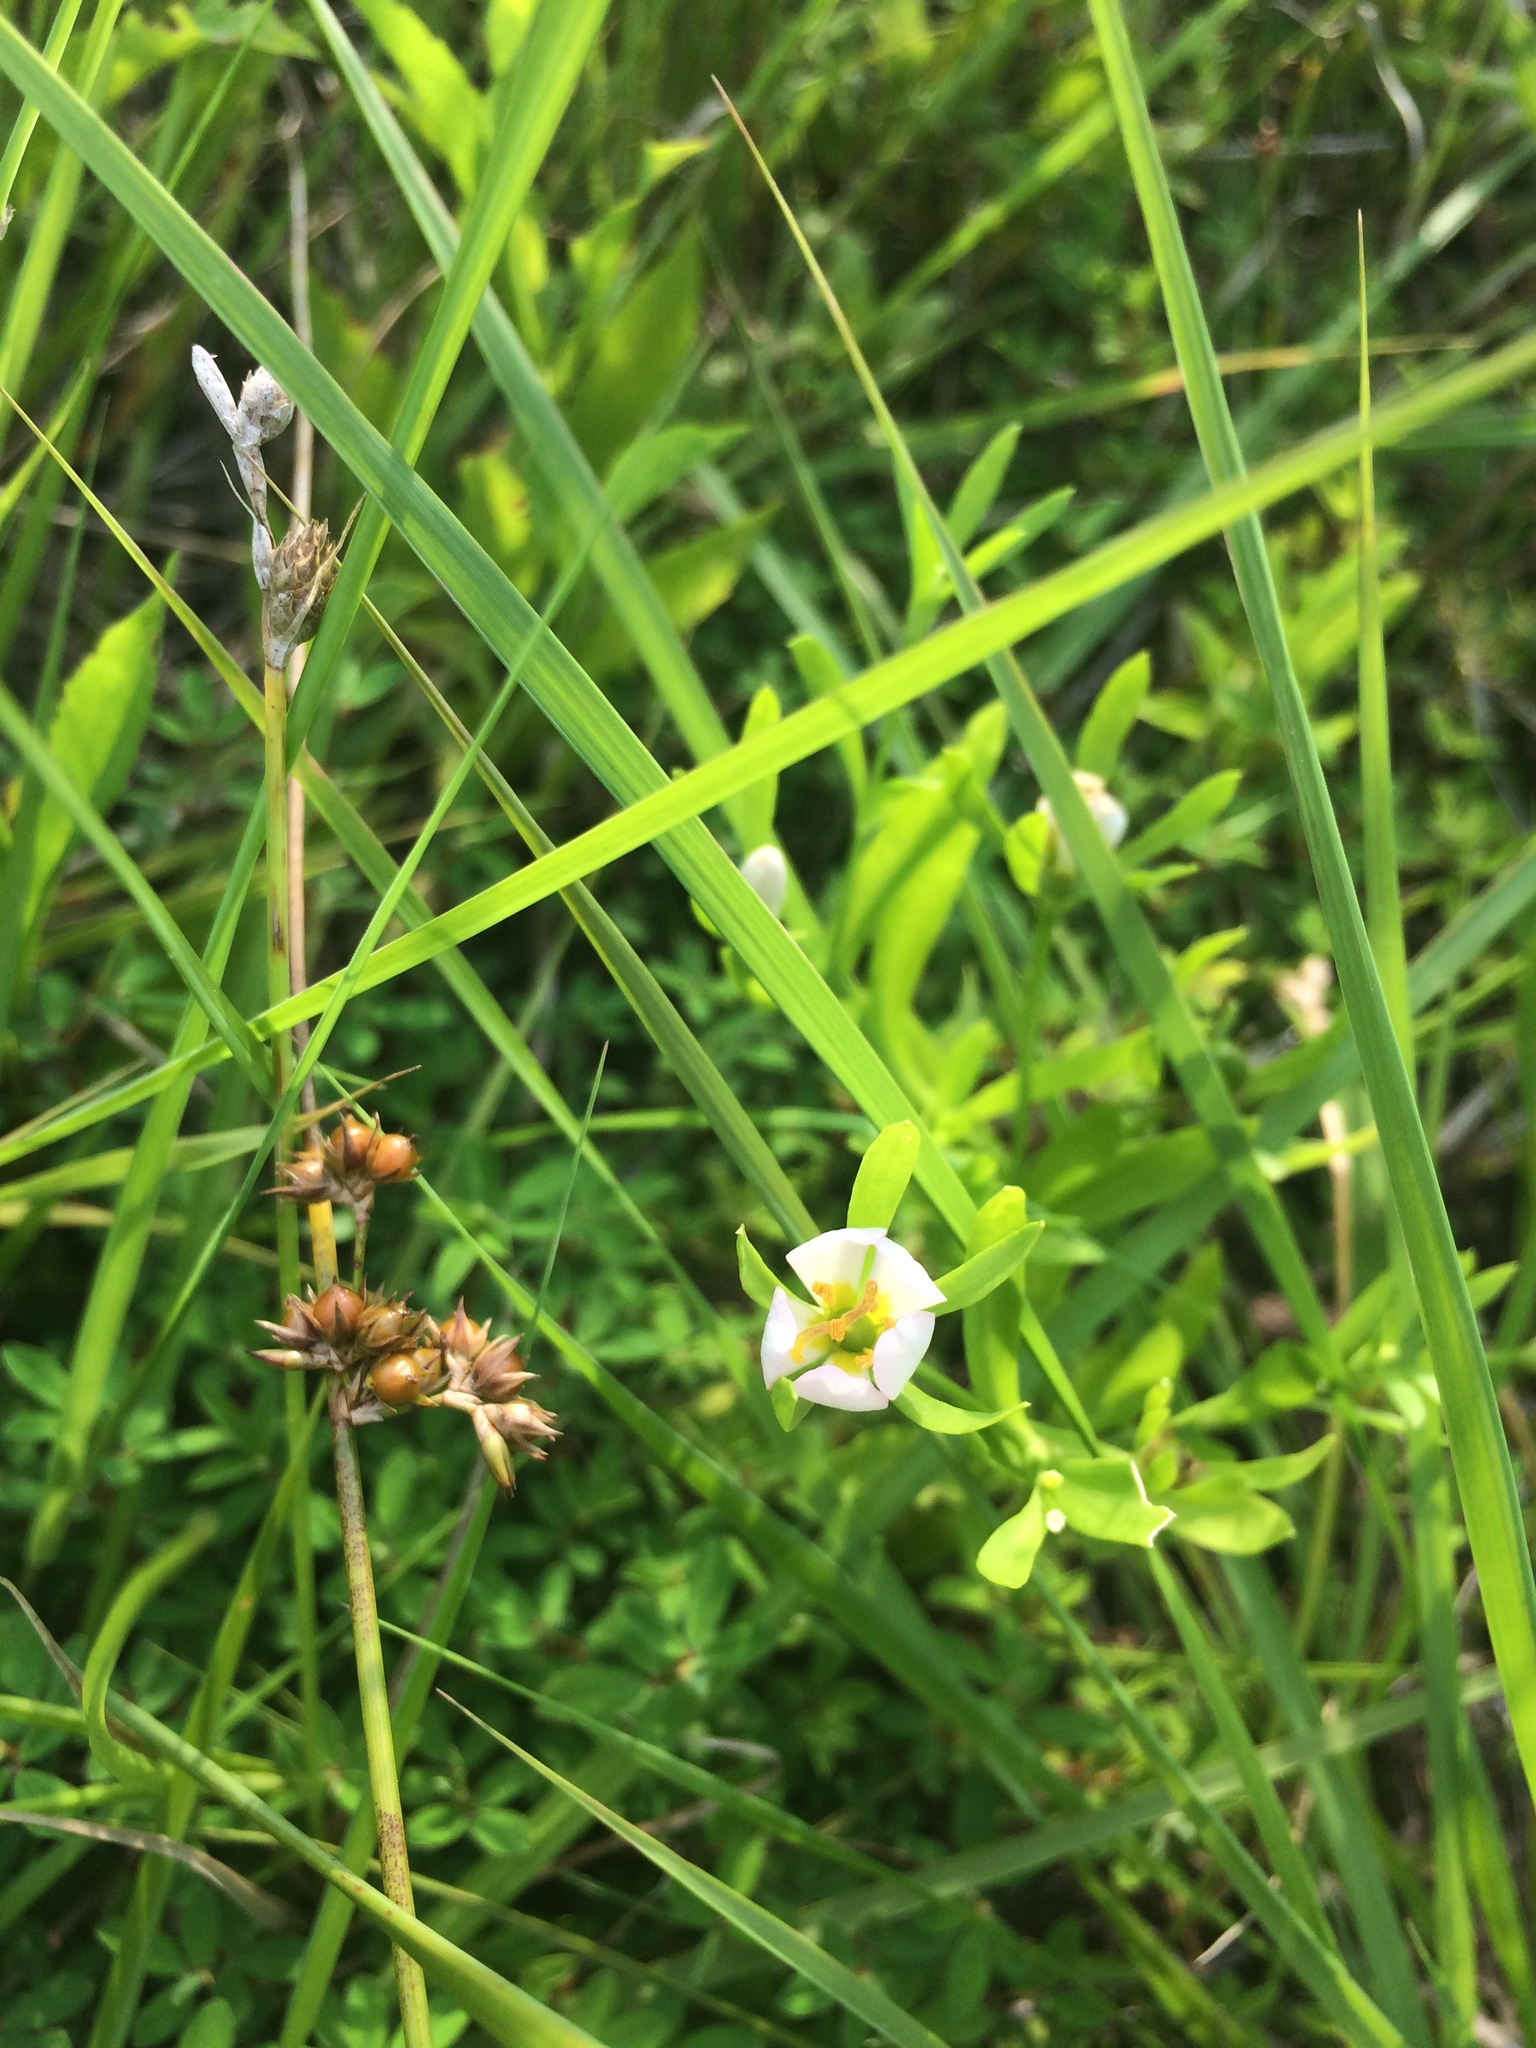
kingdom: Plantae
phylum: Tracheophyta
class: Magnoliopsida
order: Gentianales
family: Gentianaceae
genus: Sabatia
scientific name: Sabatia calycina
